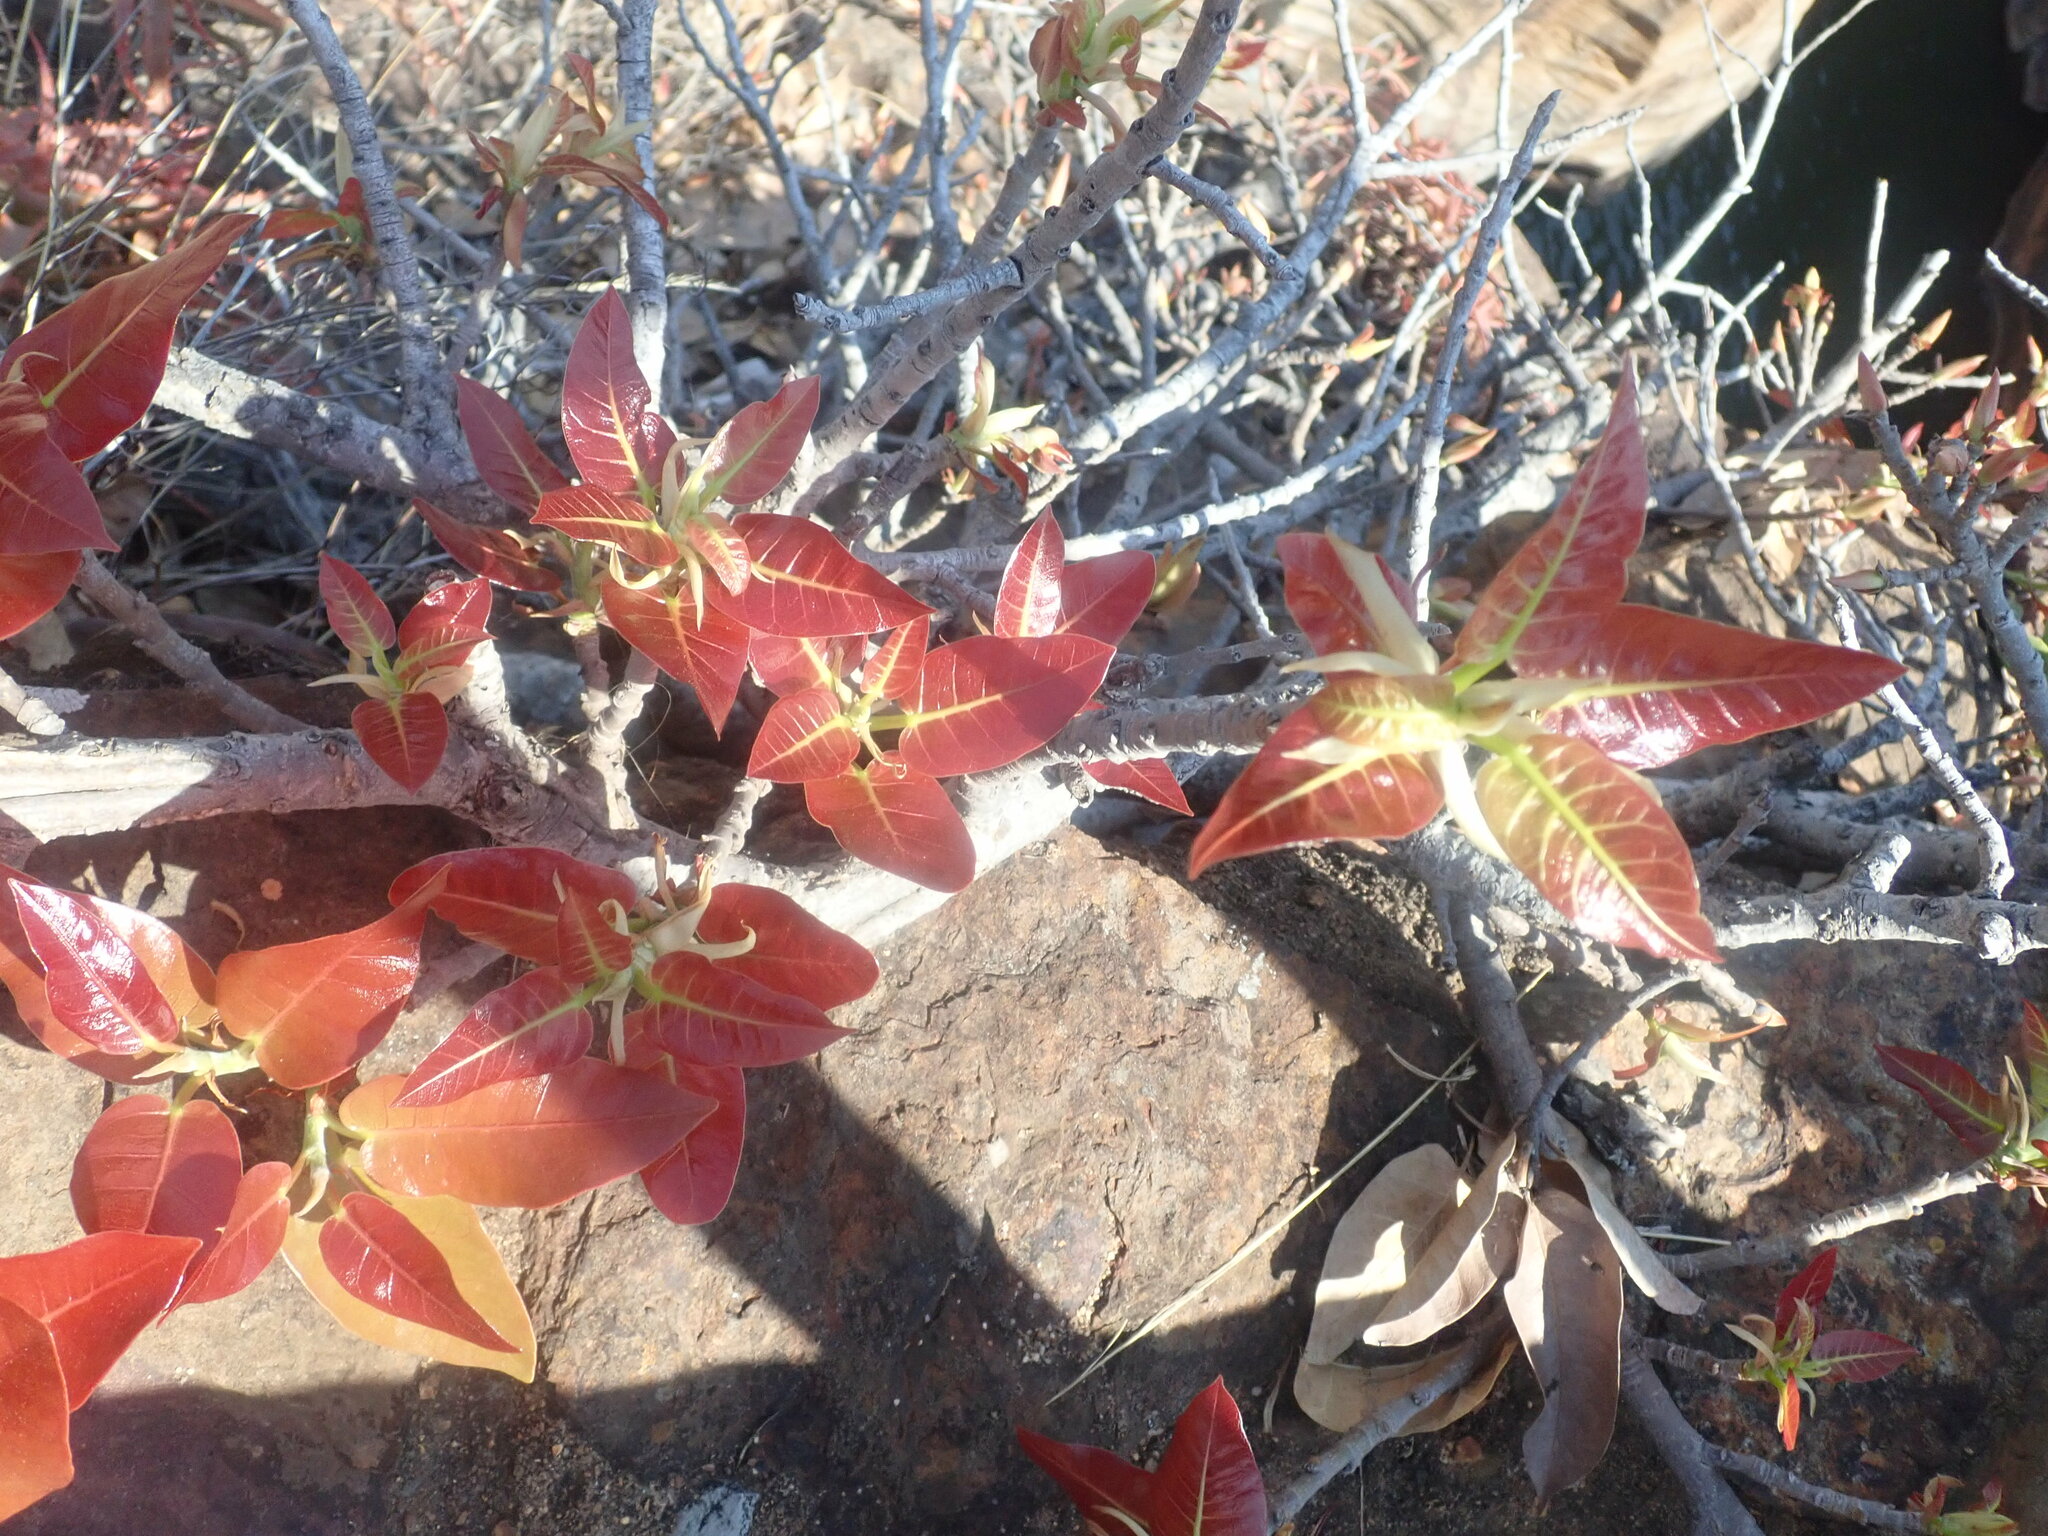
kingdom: Plantae
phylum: Tracheophyta
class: Magnoliopsida
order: Rosales
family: Moraceae
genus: Ficus
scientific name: Ficus ingens
